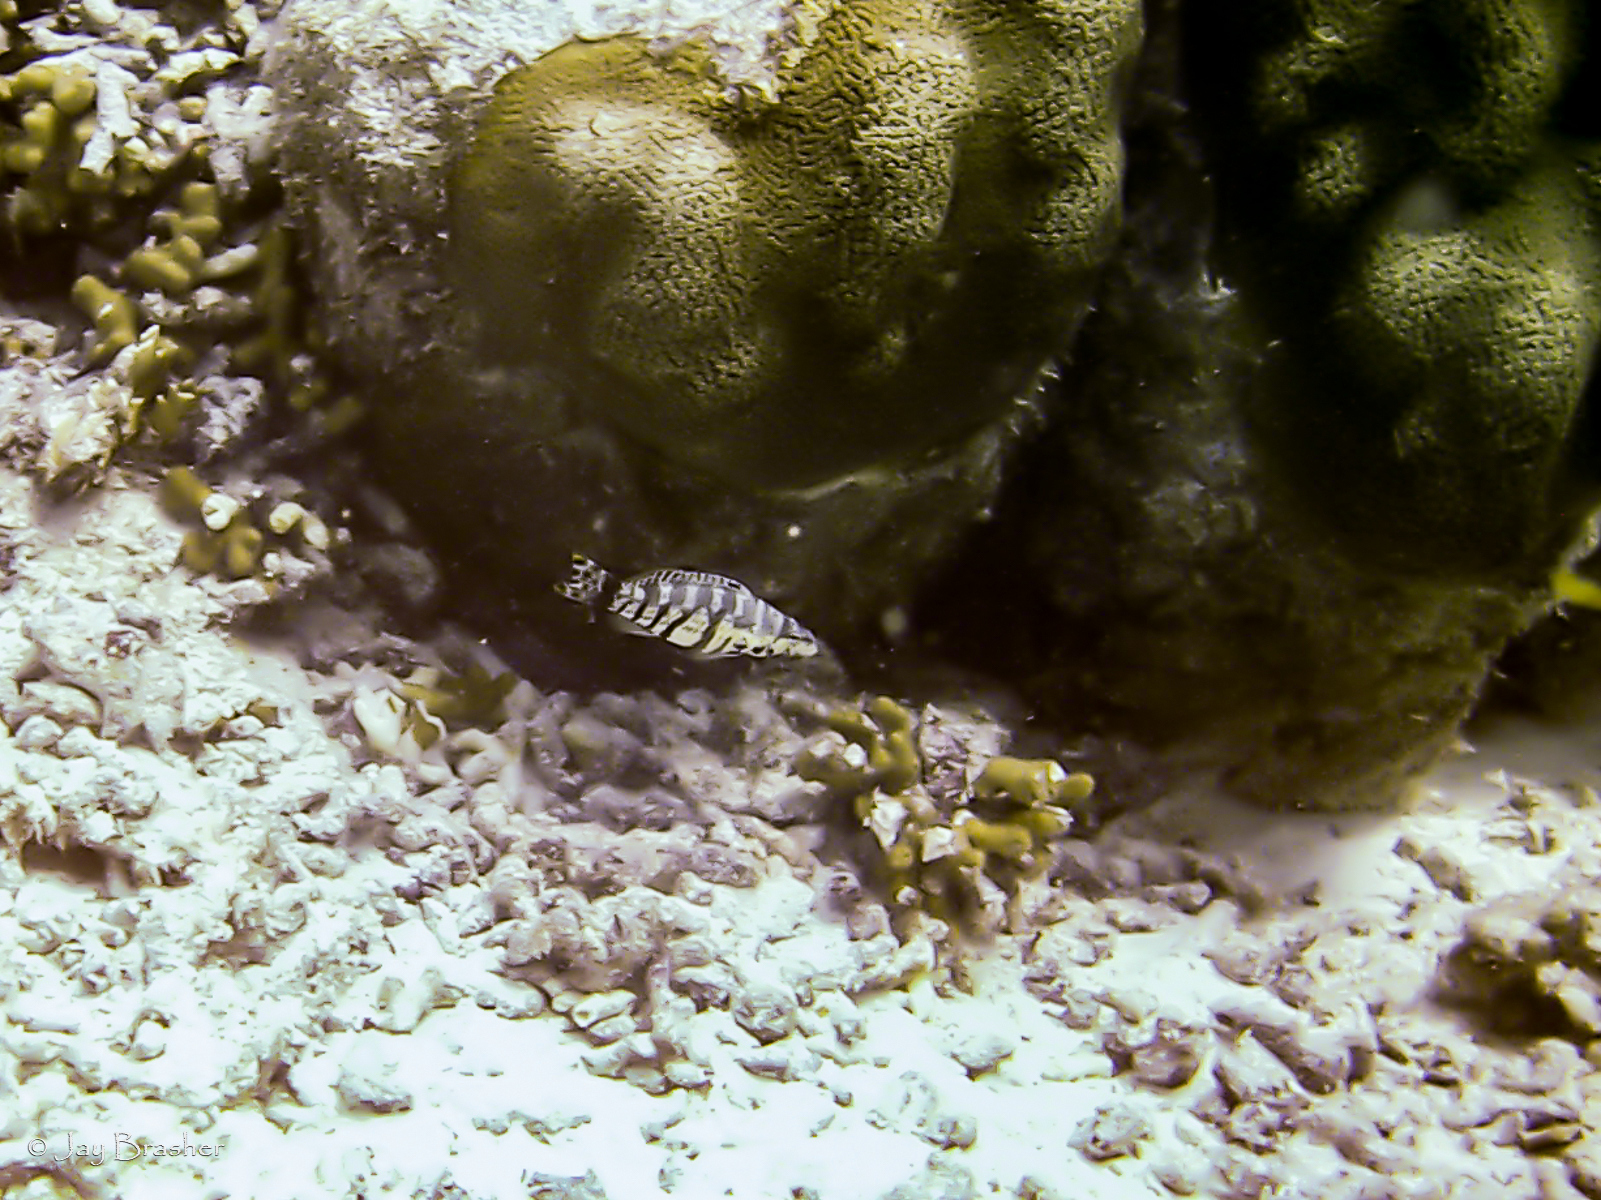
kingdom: Animalia
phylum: Chordata
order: Perciformes
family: Serranidae
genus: Serranus
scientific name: Serranus tigrinus
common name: Harlequin bass
